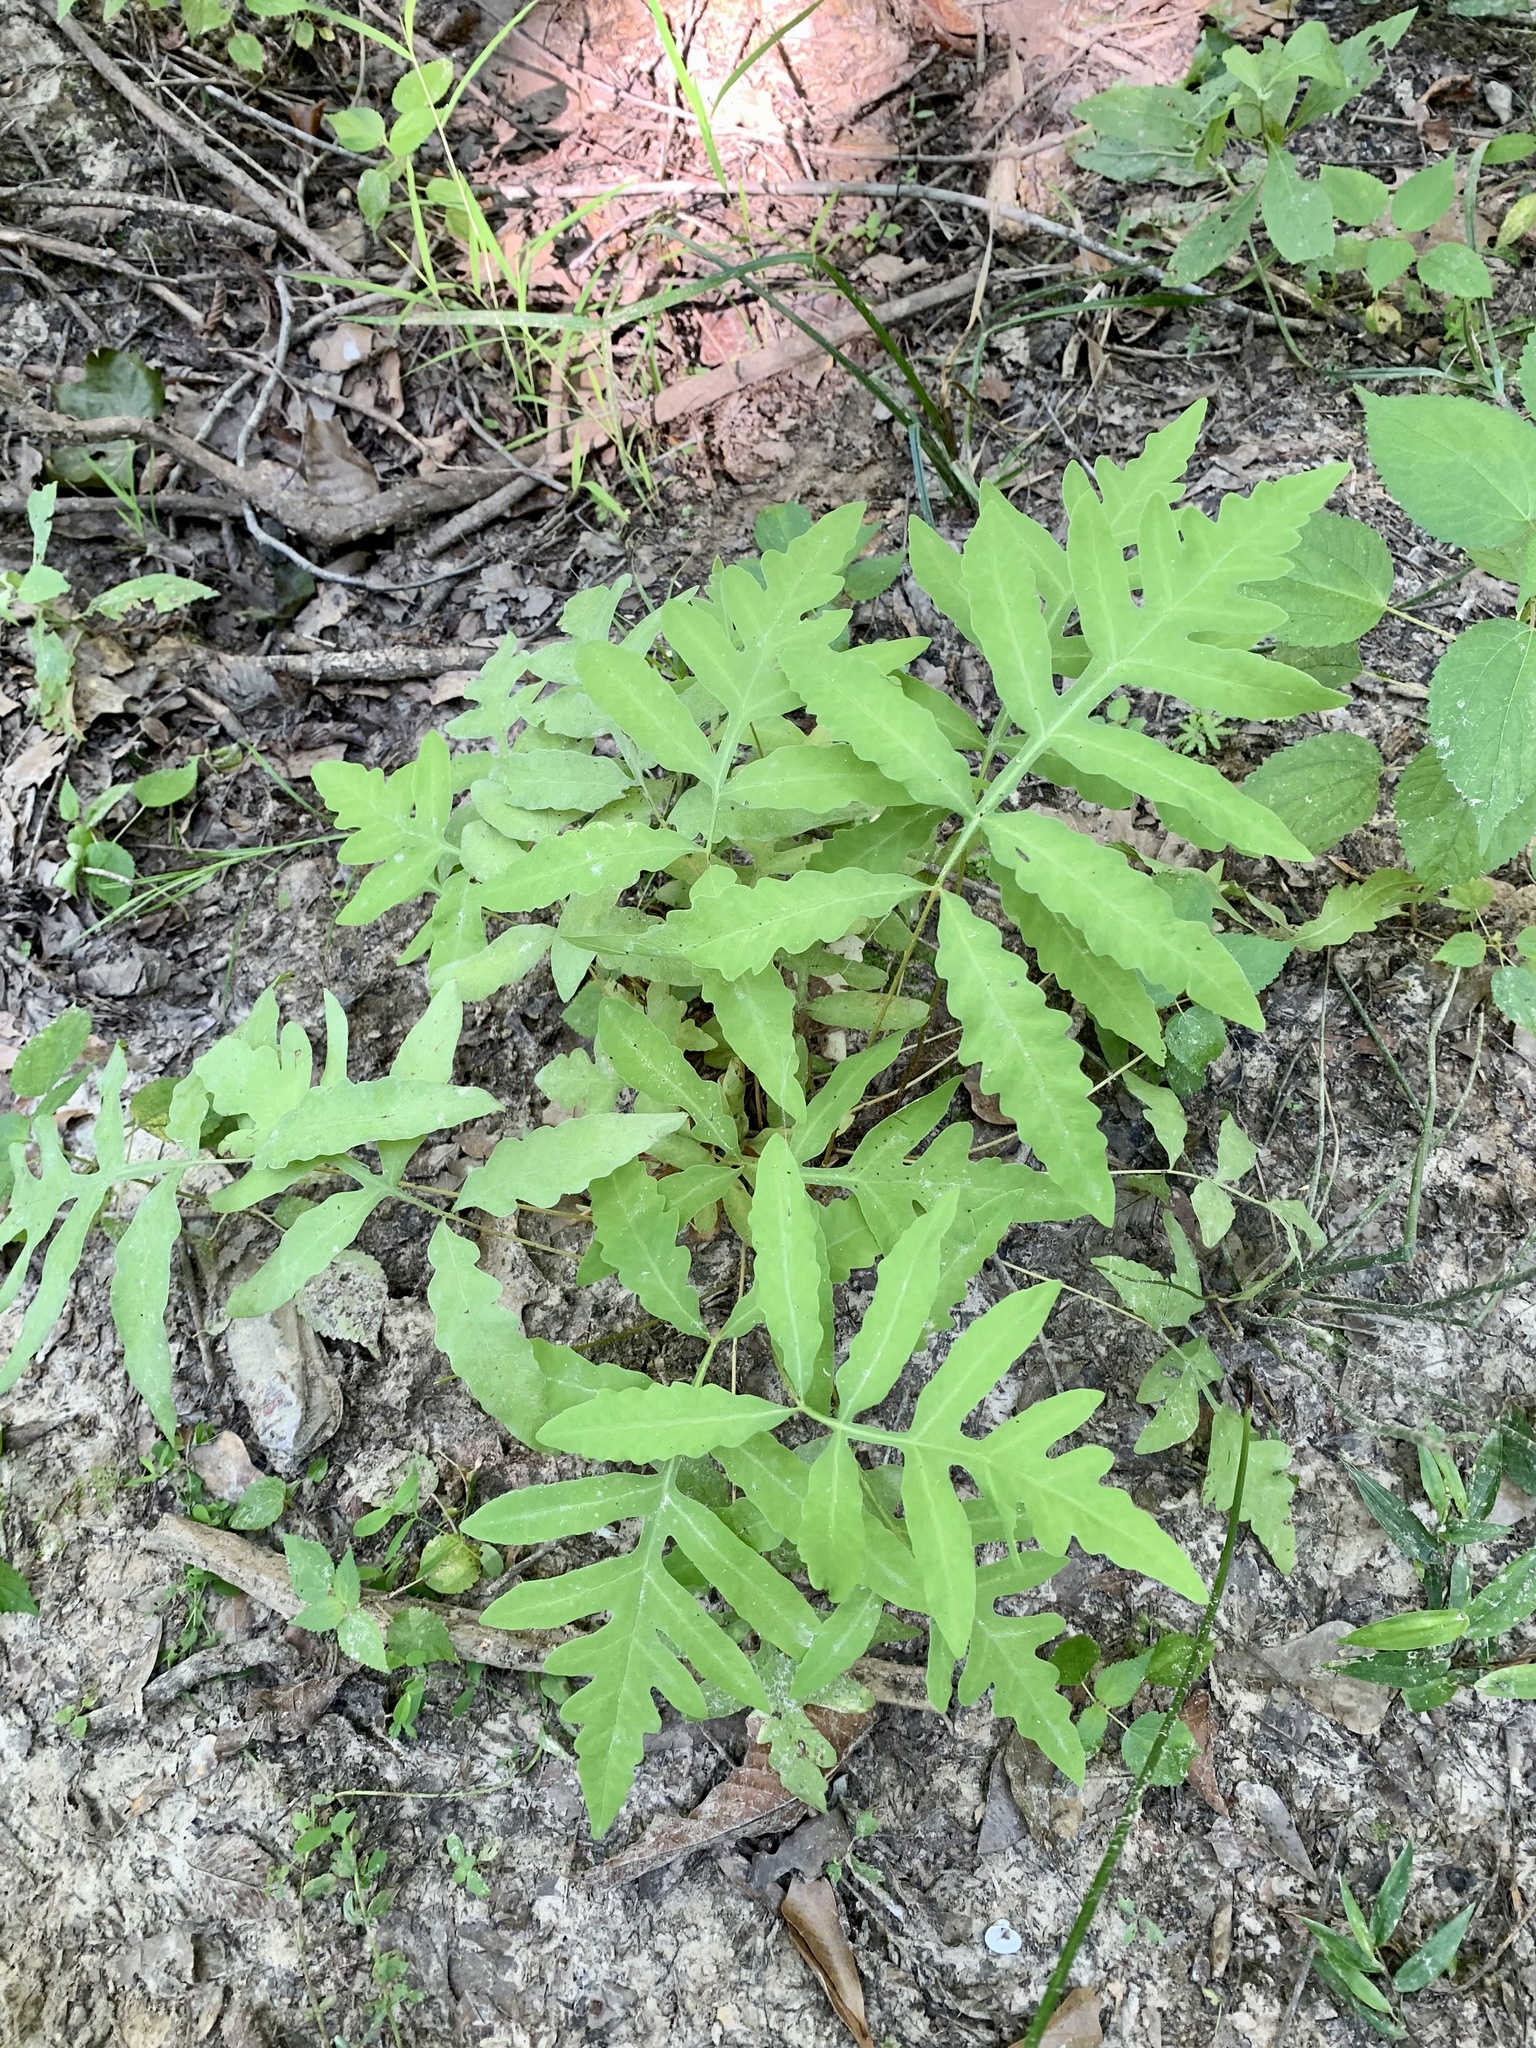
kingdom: Plantae
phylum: Tracheophyta
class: Polypodiopsida
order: Polypodiales
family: Onocleaceae
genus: Onoclea
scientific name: Onoclea sensibilis
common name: Sensitive fern
